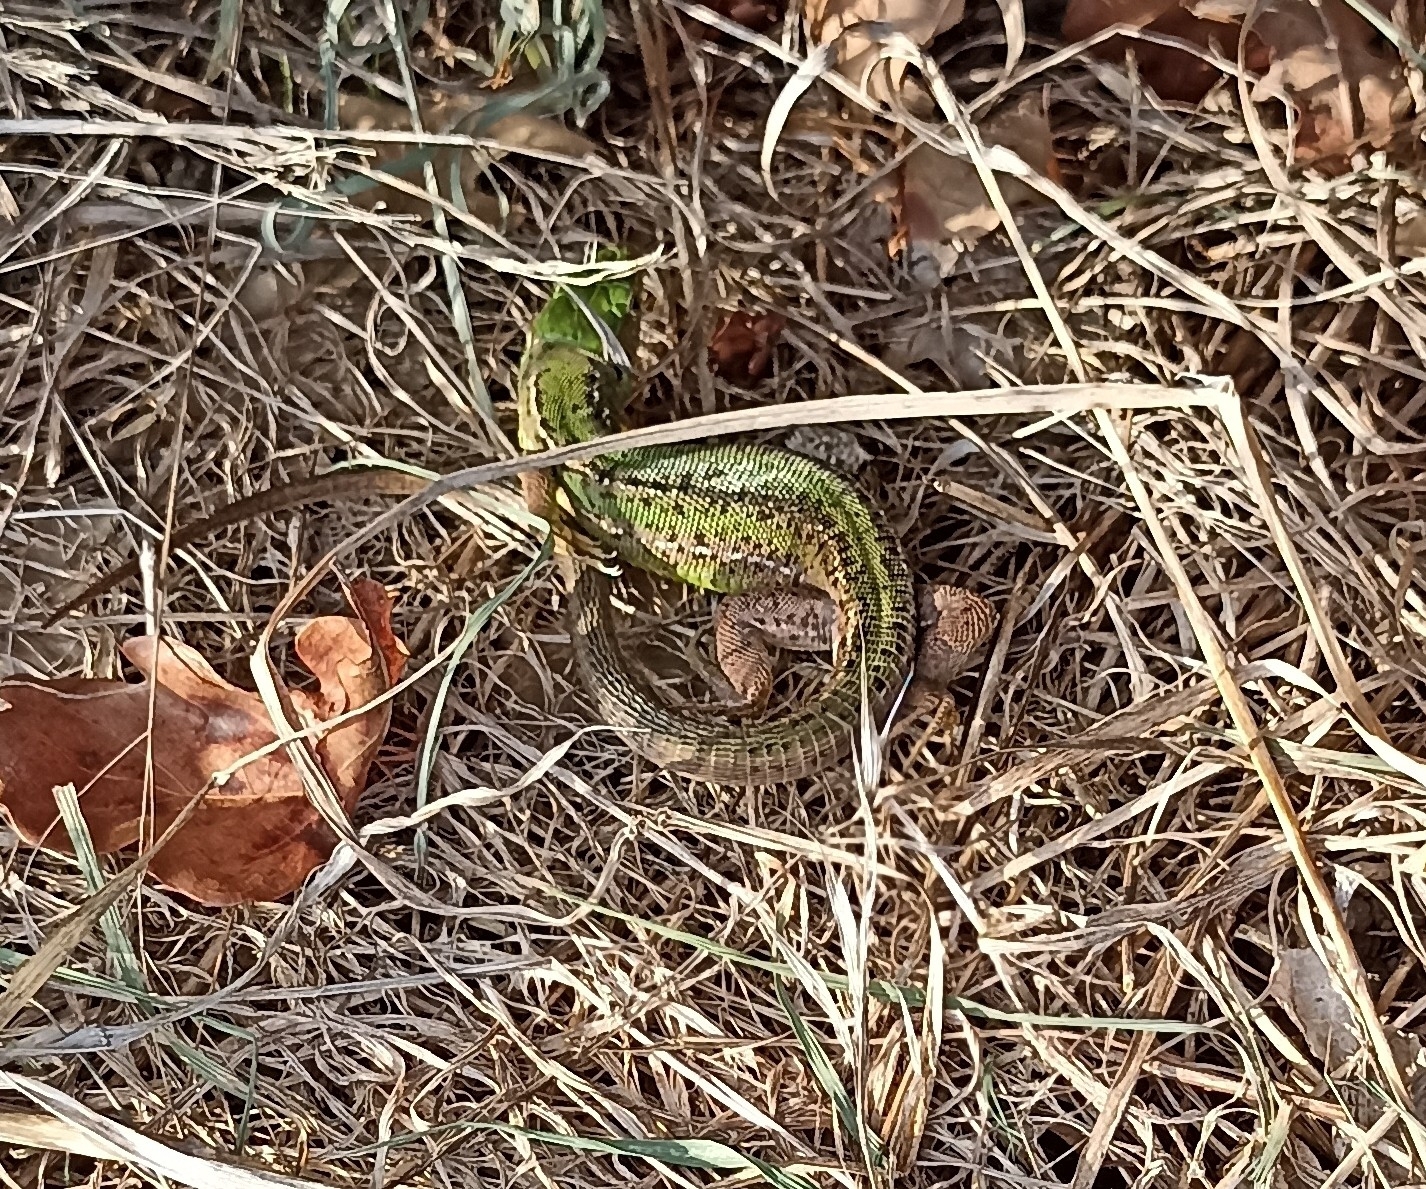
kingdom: Animalia
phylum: Chordata
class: Squamata
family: Lacertidae
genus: Lacerta
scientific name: Lacerta bilineata
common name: Western green lizard
